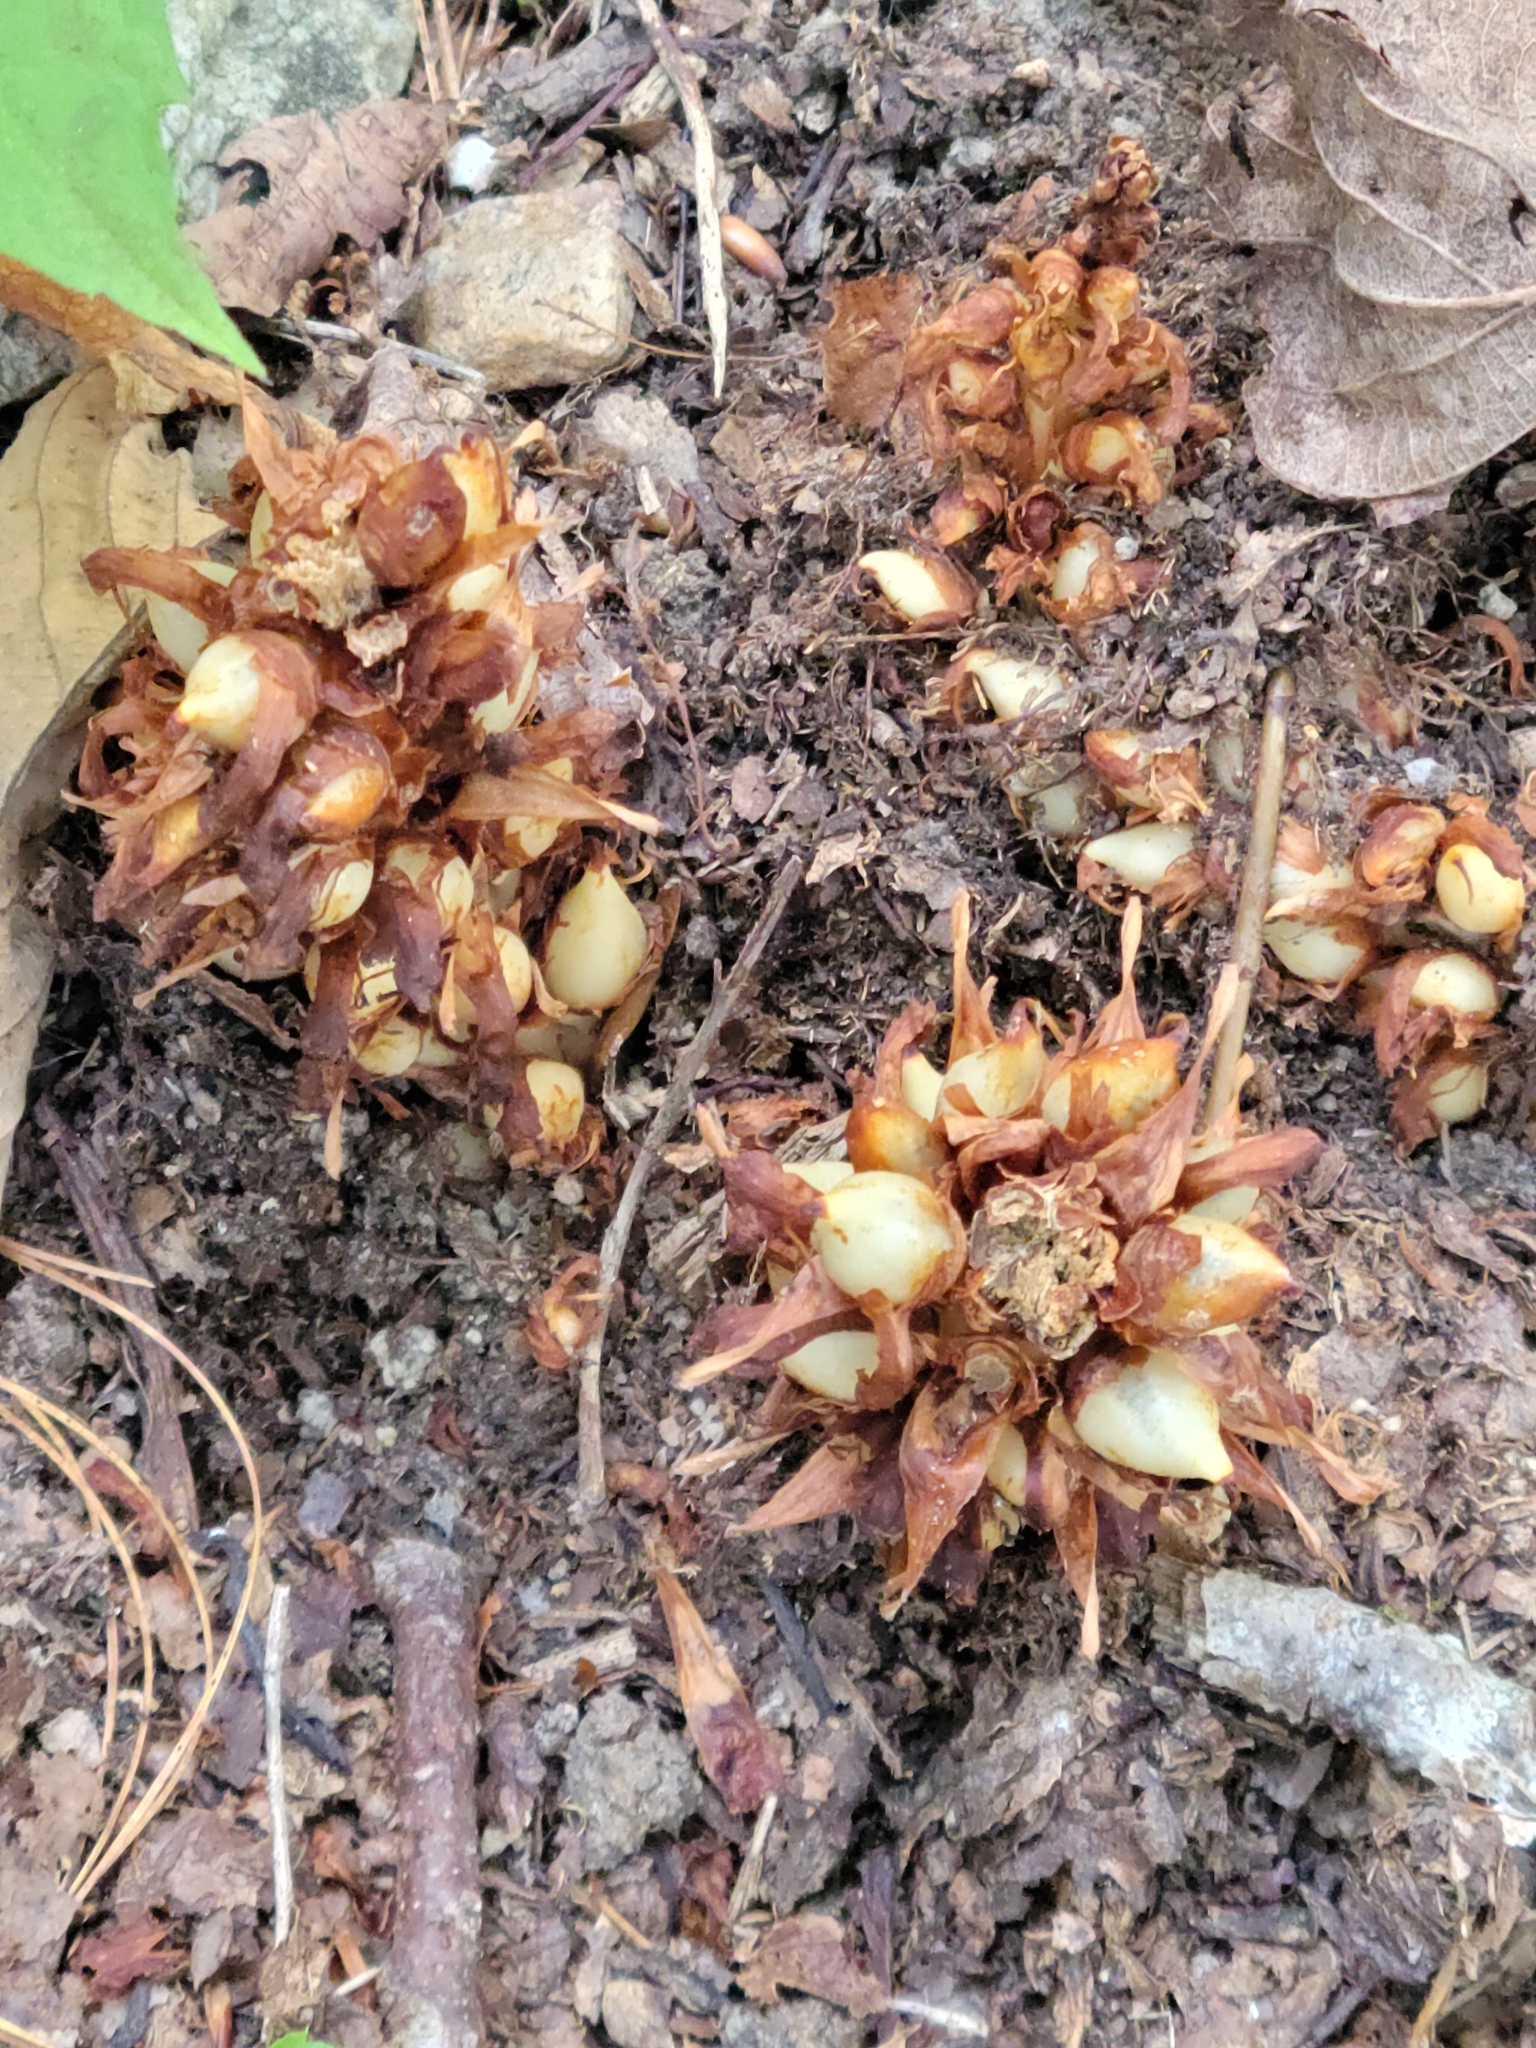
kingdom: Plantae
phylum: Tracheophyta
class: Magnoliopsida
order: Lamiales
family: Orobanchaceae
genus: Conopholis
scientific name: Conopholis americana
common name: American cancer-root
